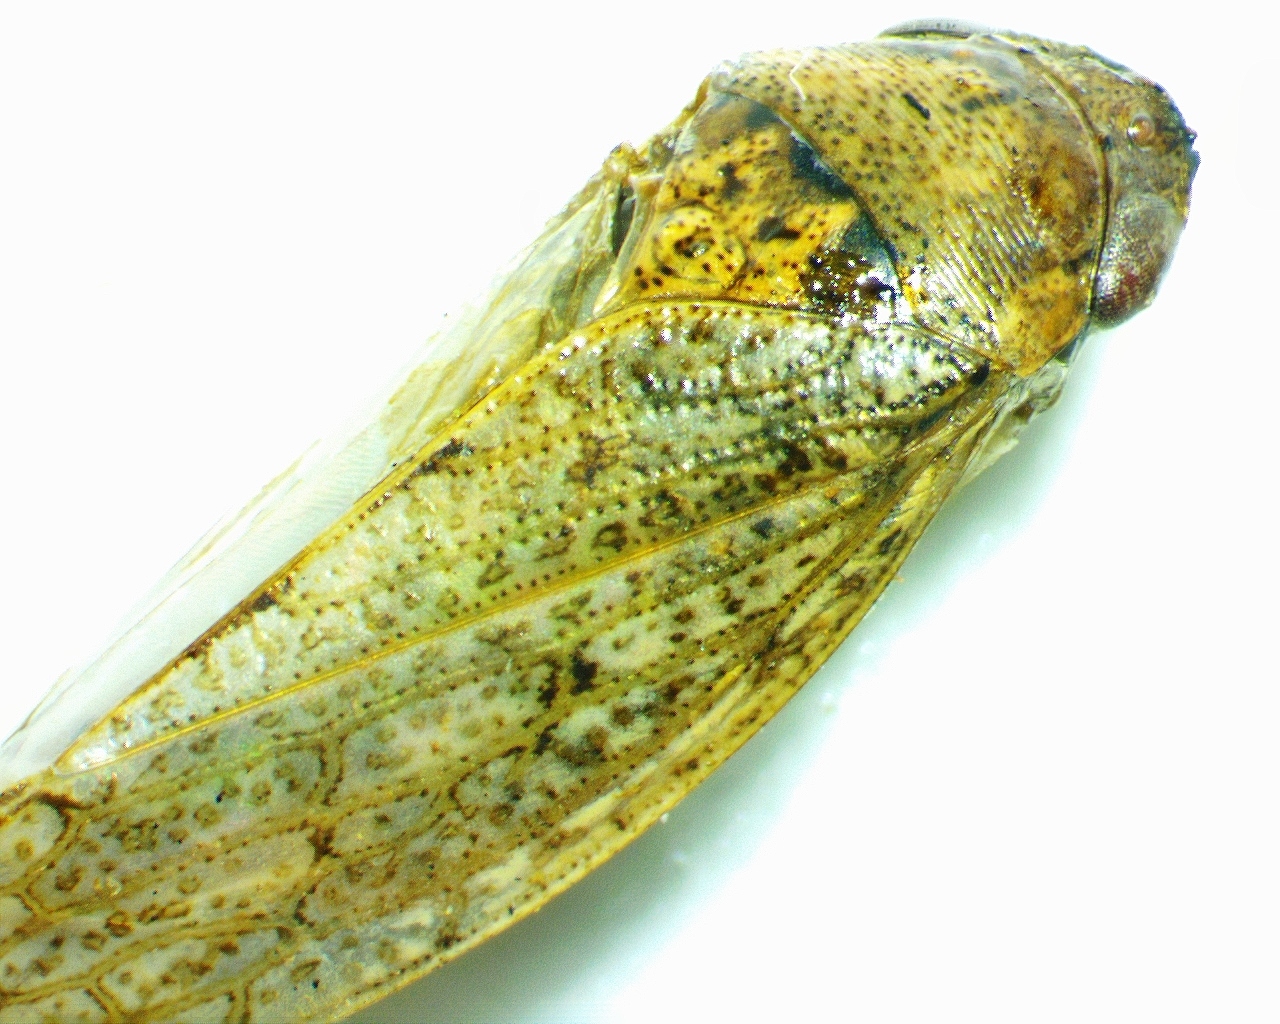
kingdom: Animalia
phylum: Arthropoda
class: Insecta
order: Hemiptera
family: Cicadellidae
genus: Curtara
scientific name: Curtara insularis
